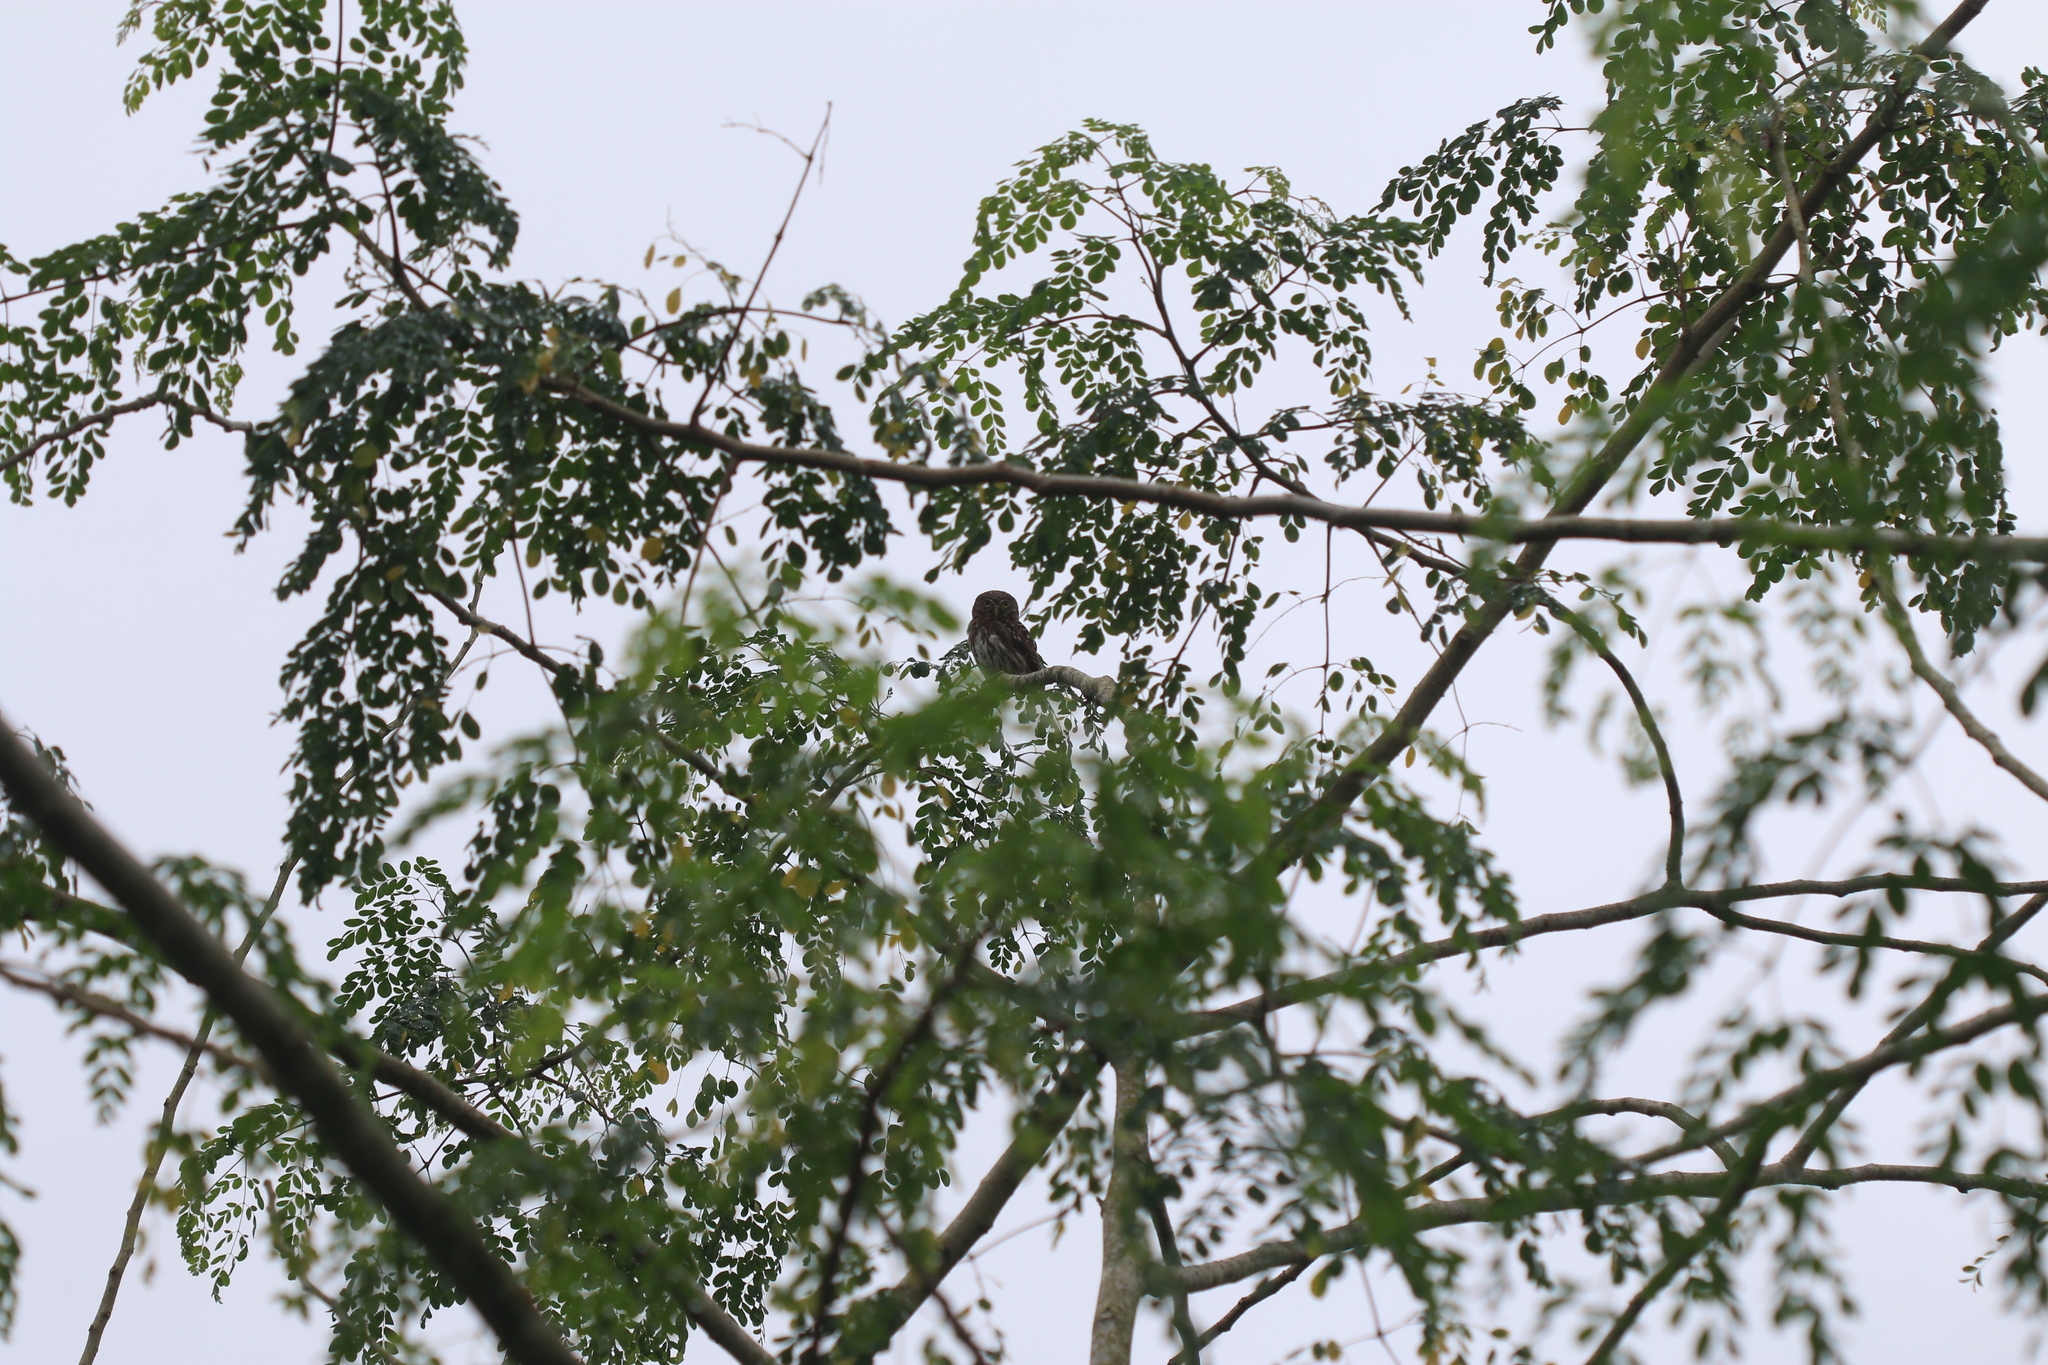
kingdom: Animalia
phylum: Chordata
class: Aves
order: Strigiformes
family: Strigidae
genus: Glaucidium
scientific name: Glaucidium peruanum
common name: Pacific pygmy owl
